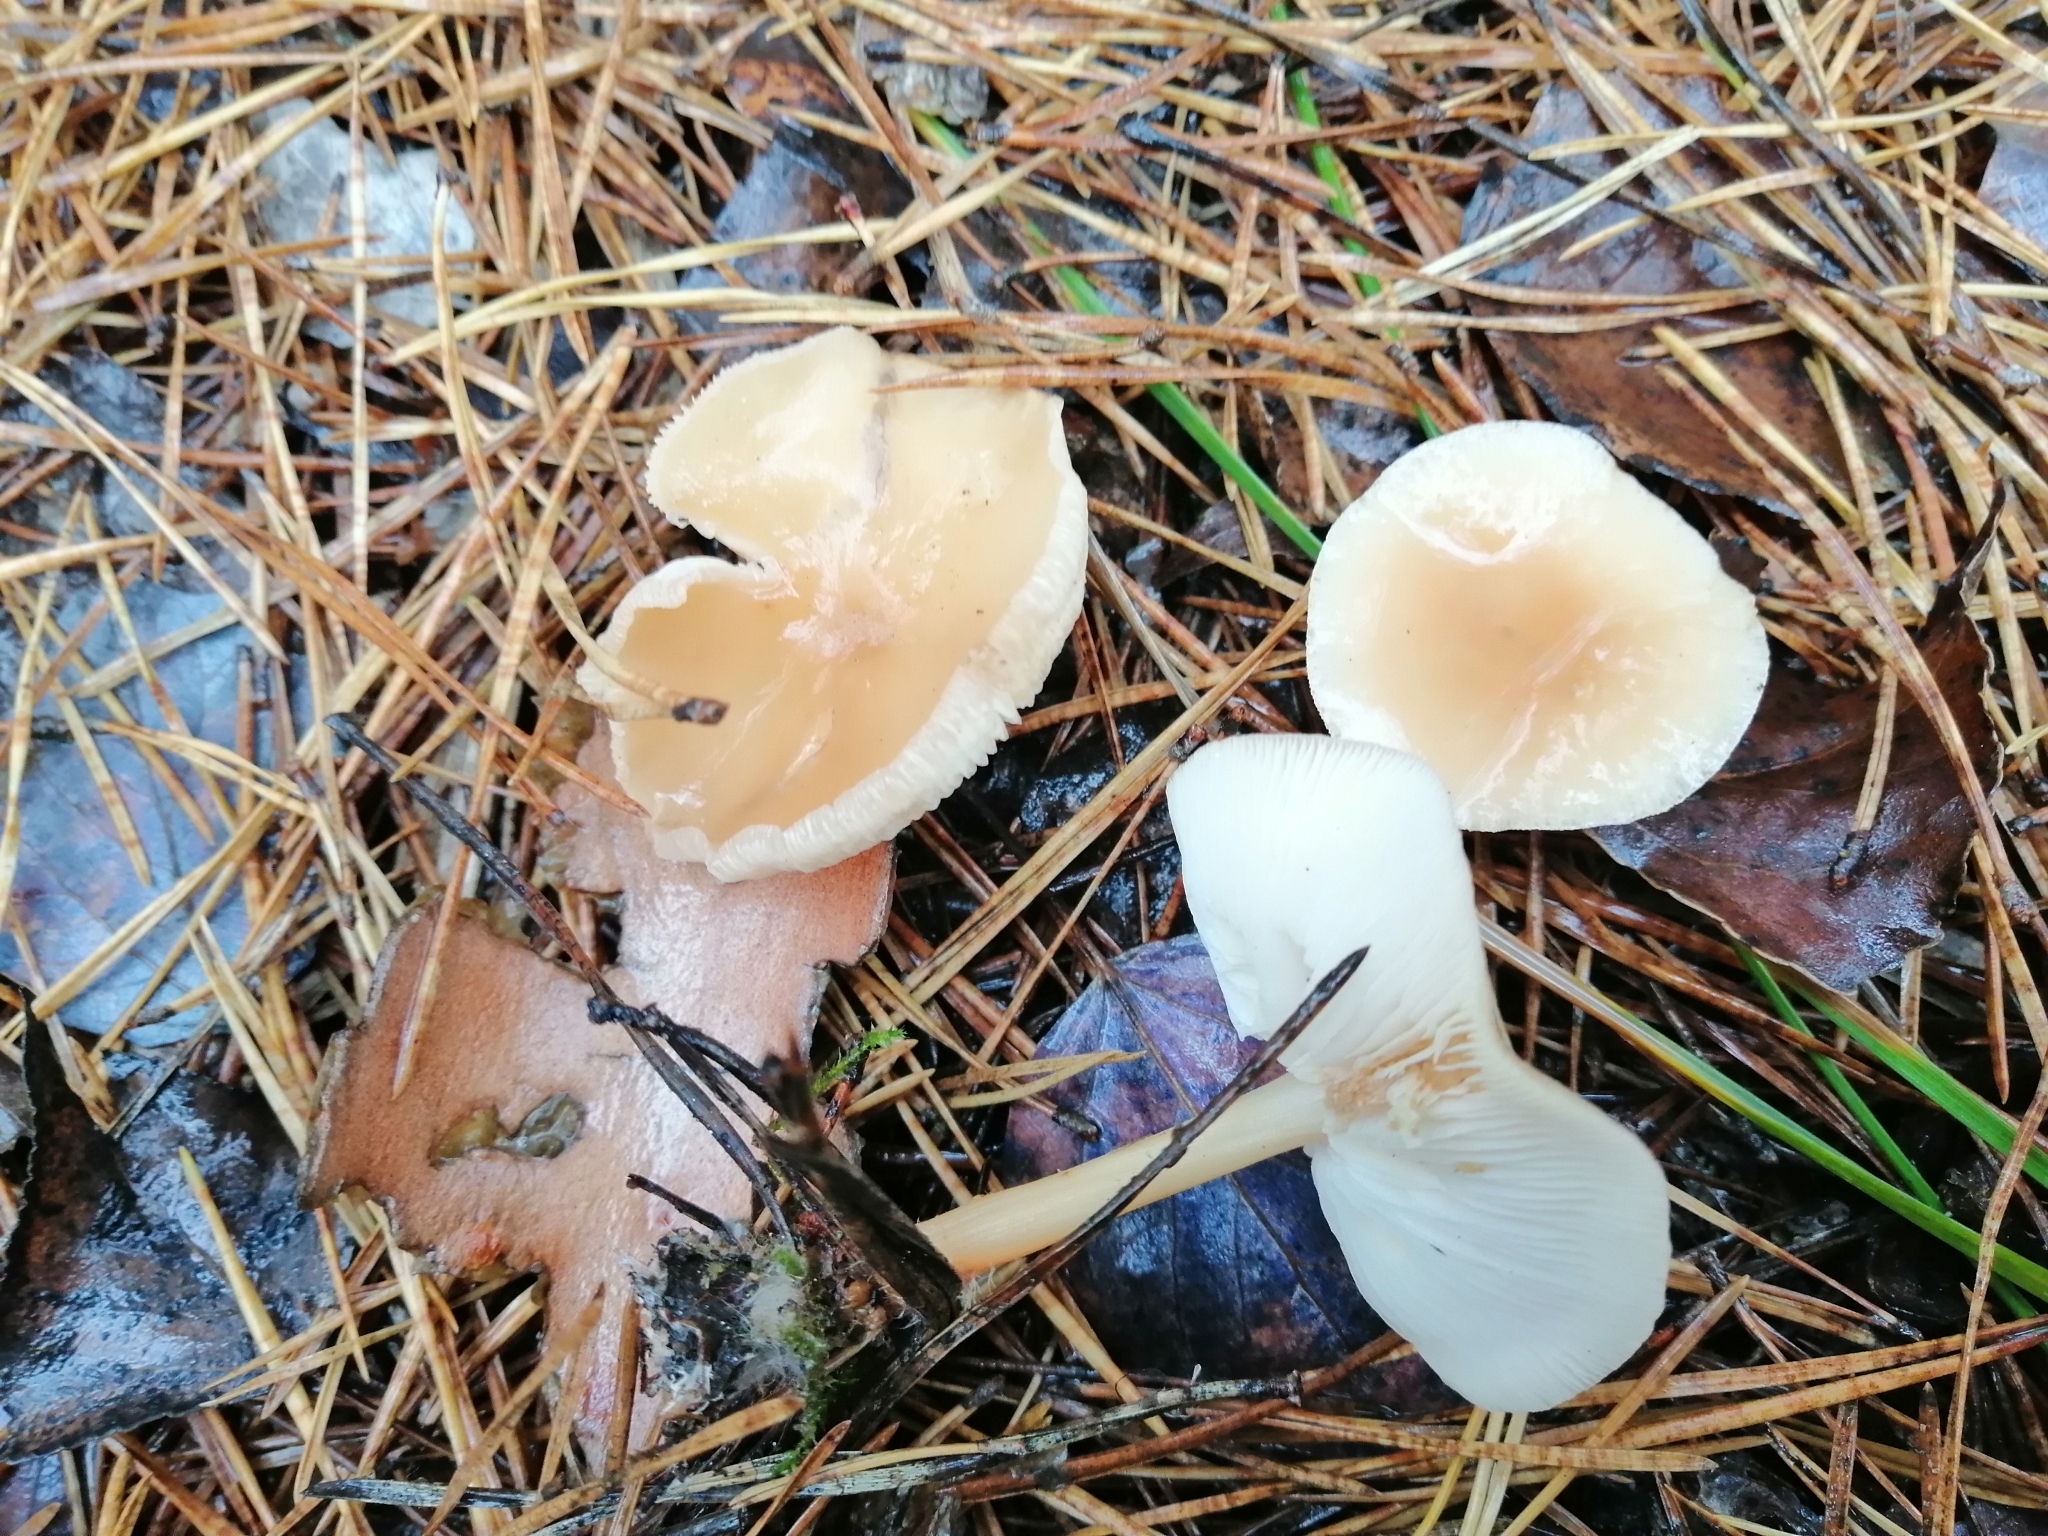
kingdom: Fungi
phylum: Basidiomycota
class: Agaricomycetes
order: Agaricales
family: Omphalotaceae
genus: Gymnopus
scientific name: Gymnopus dryophilus
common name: Penny top
